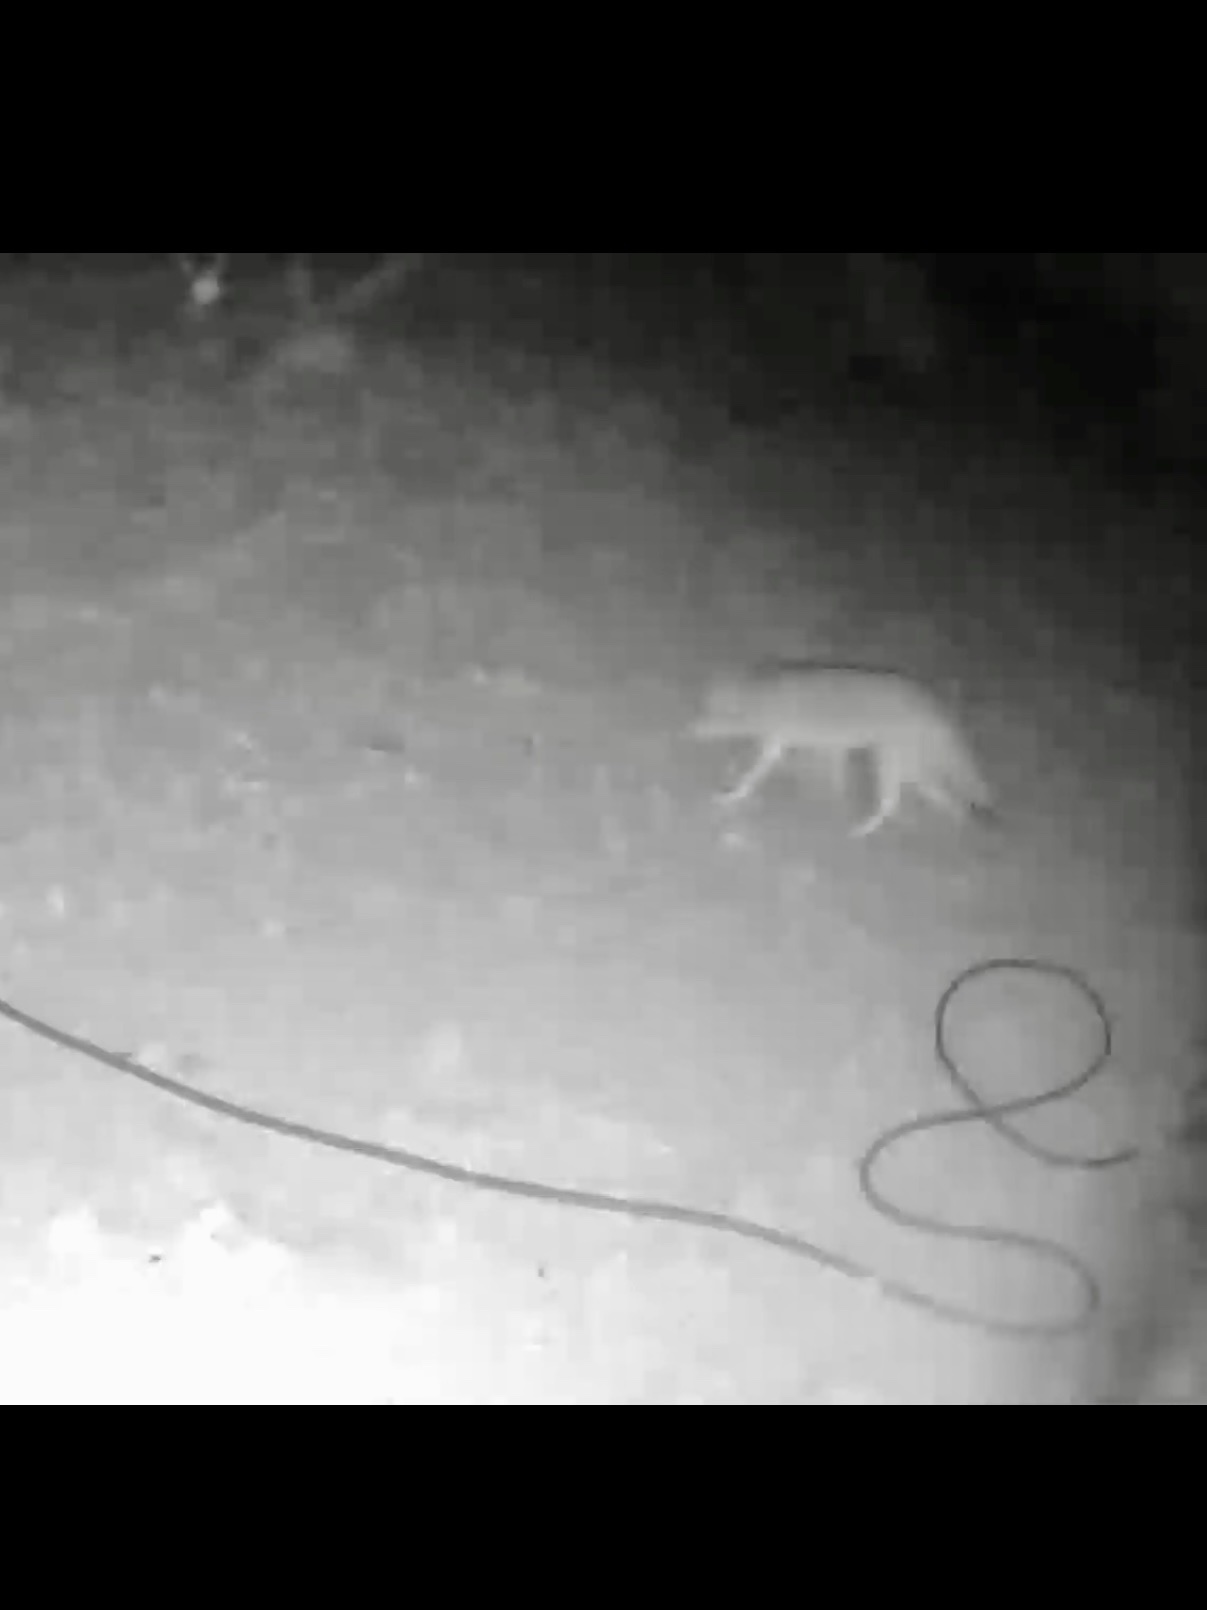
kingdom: Animalia
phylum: Chordata
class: Mammalia
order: Carnivora
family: Canidae
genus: Canis
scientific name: Canis latrans
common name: Coyote
